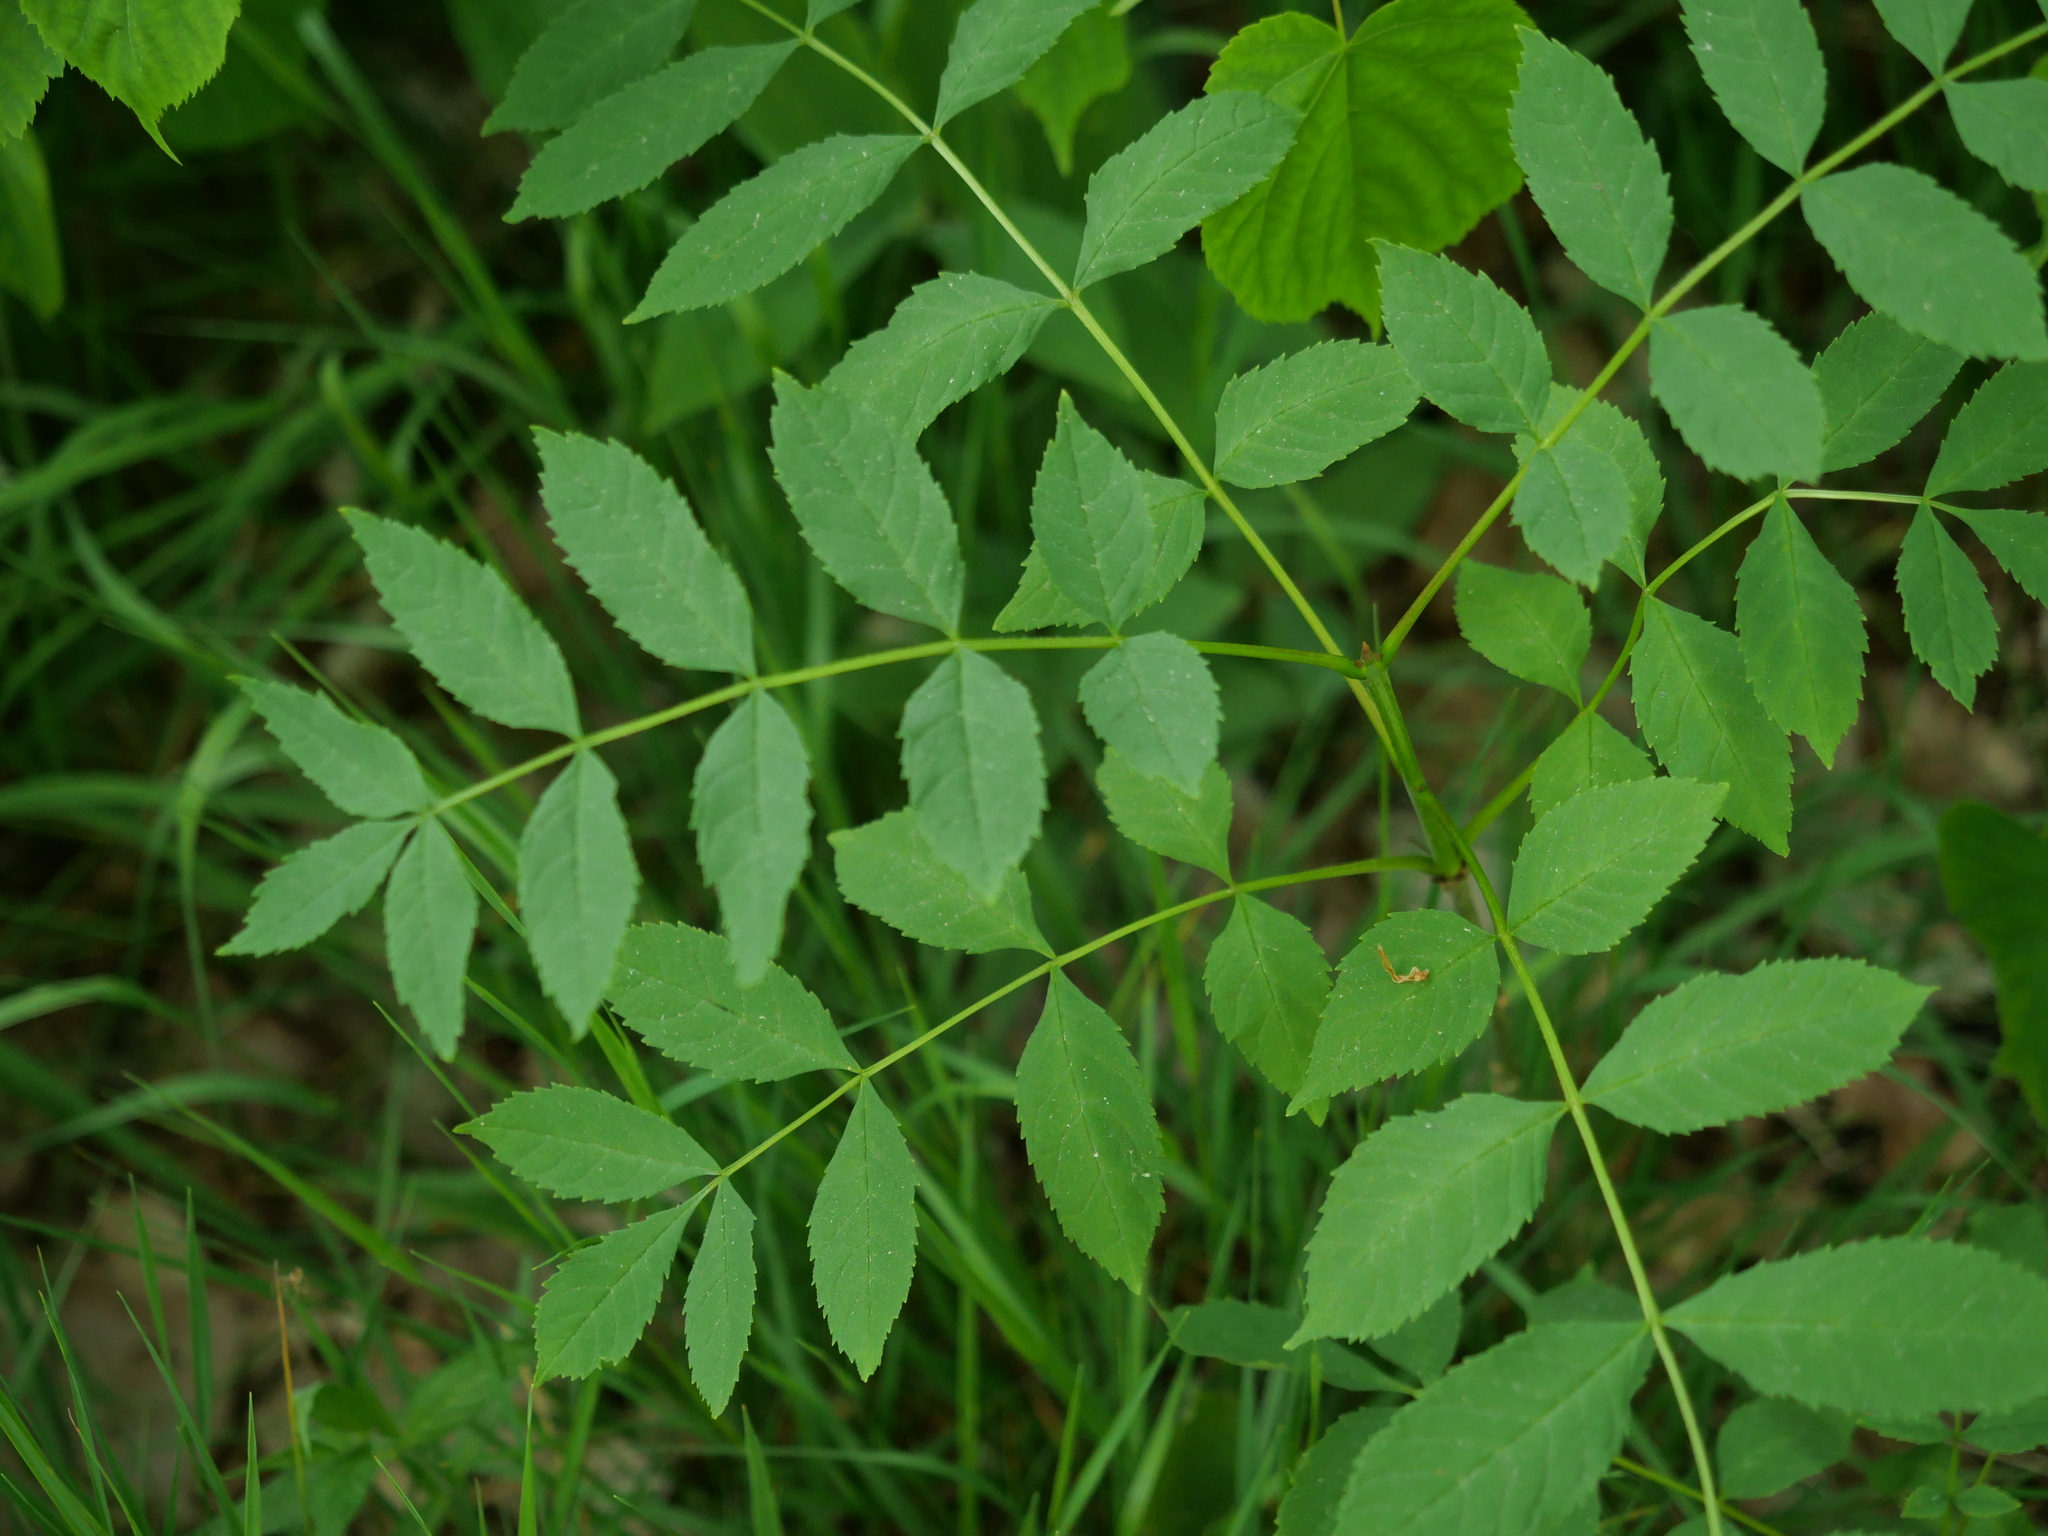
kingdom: Plantae
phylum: Tracheophyta
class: Magnoliopsida
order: Lamiales
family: Oleaceae
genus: Fraxinus
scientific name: Fraxinus excelsior
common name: European ash
